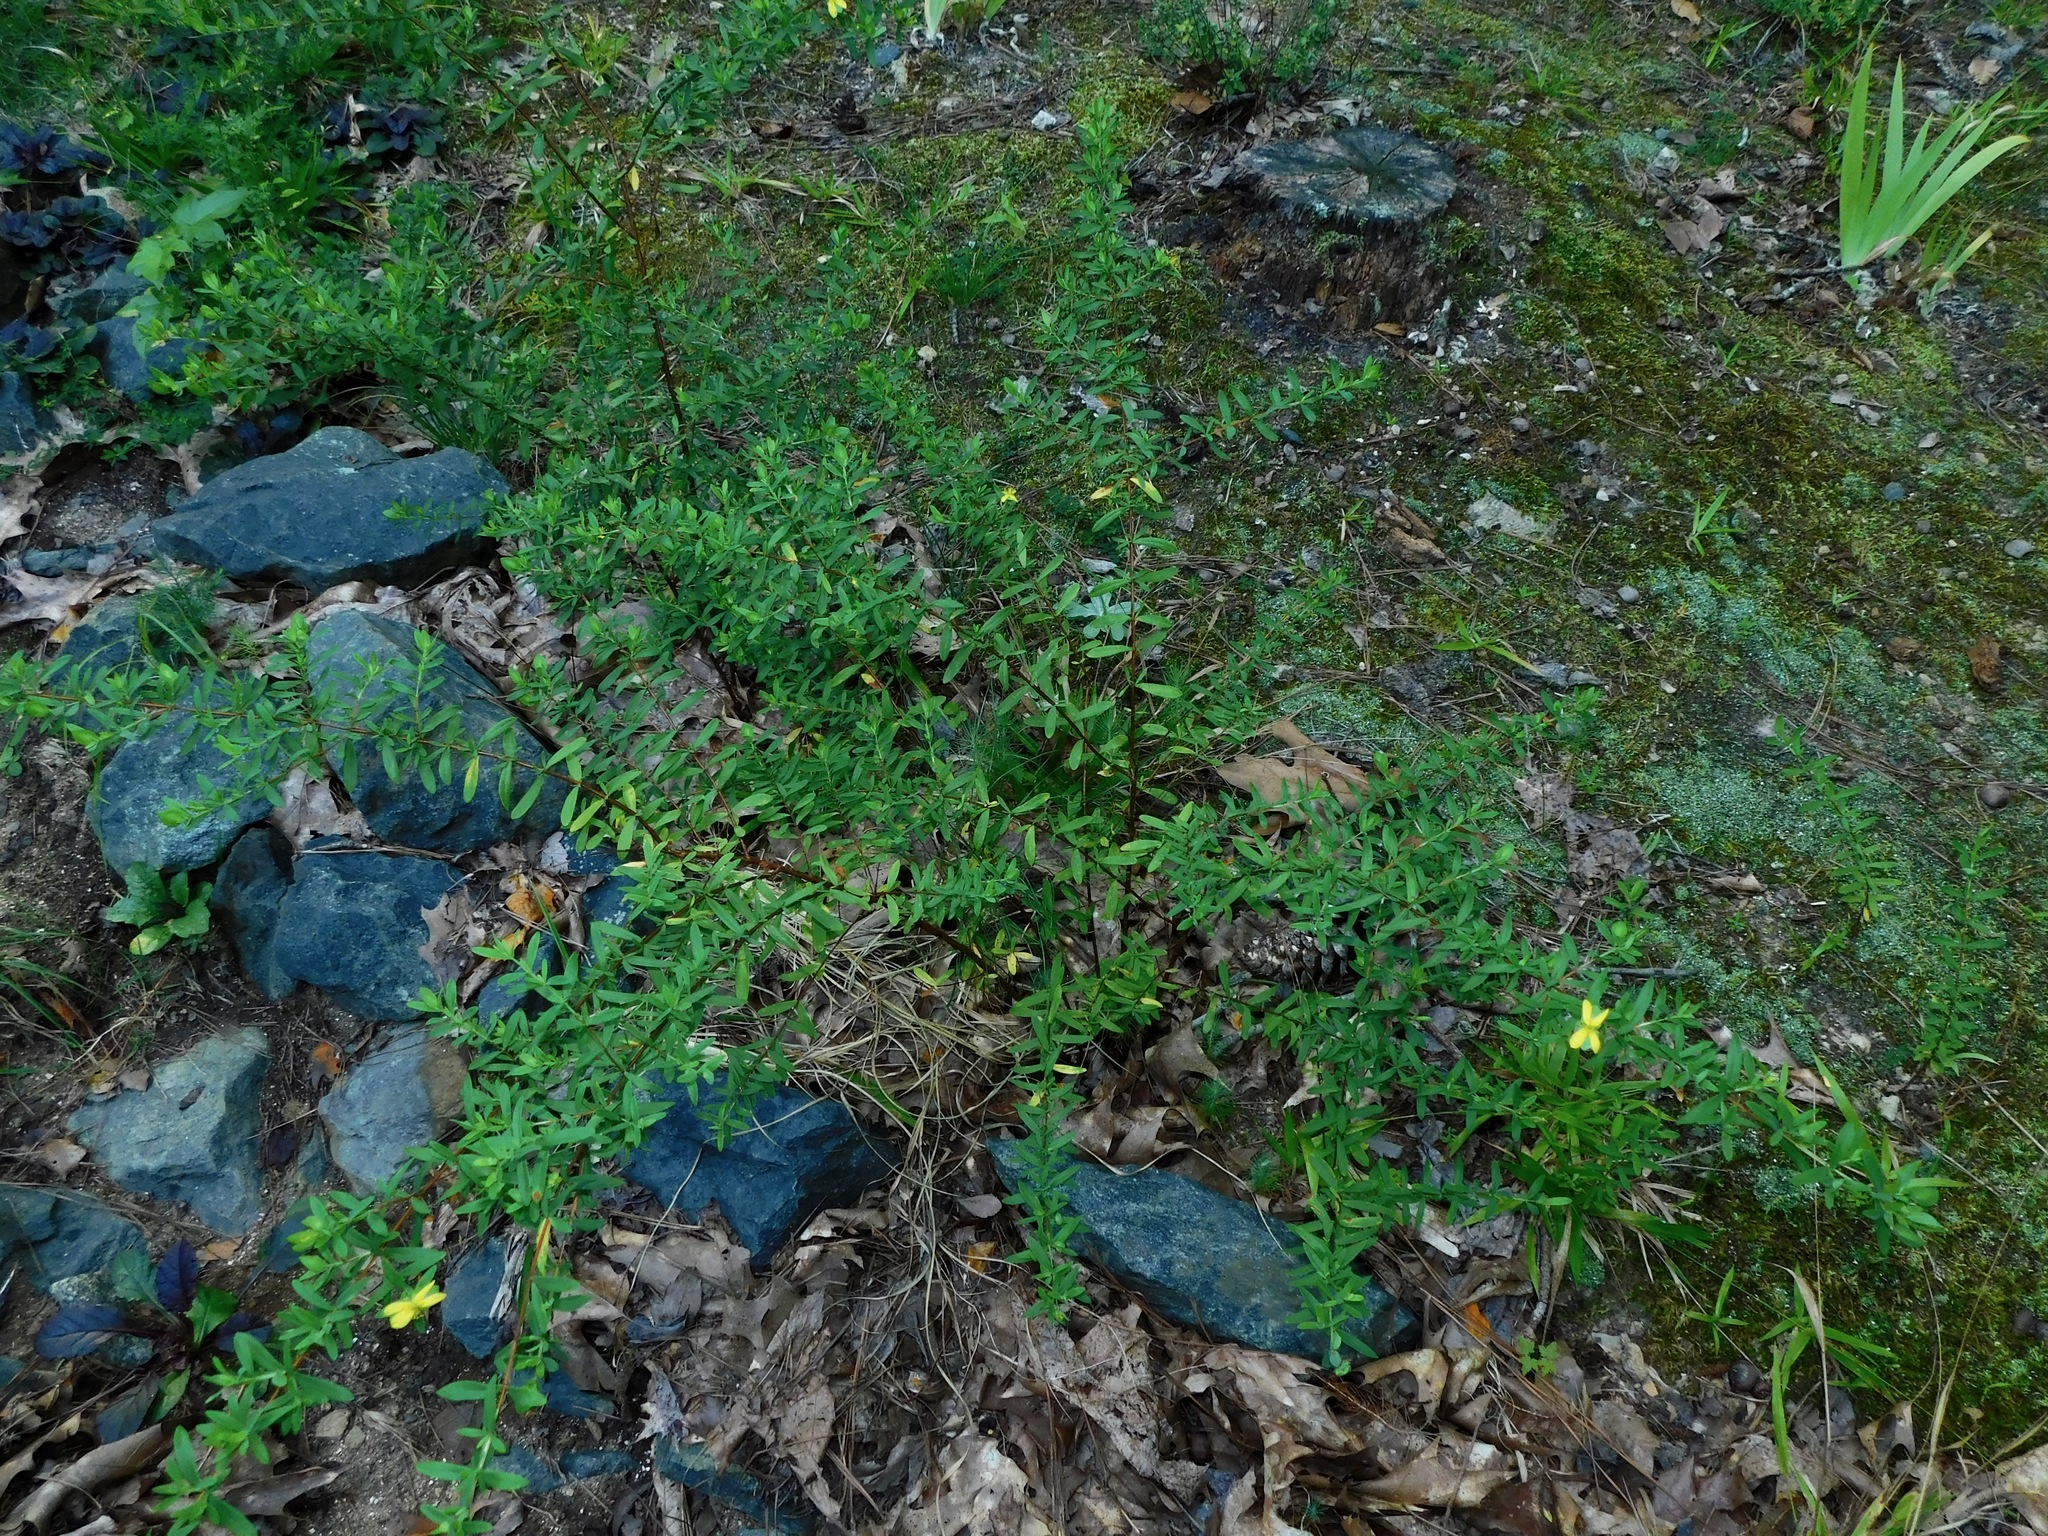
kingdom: Plantae
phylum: Tracheophyta
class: Magnoliopsida
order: Malpighiales
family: Hypericaceae
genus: Hypericum
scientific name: Hypericum hypericoides
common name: St. andrew's cross
